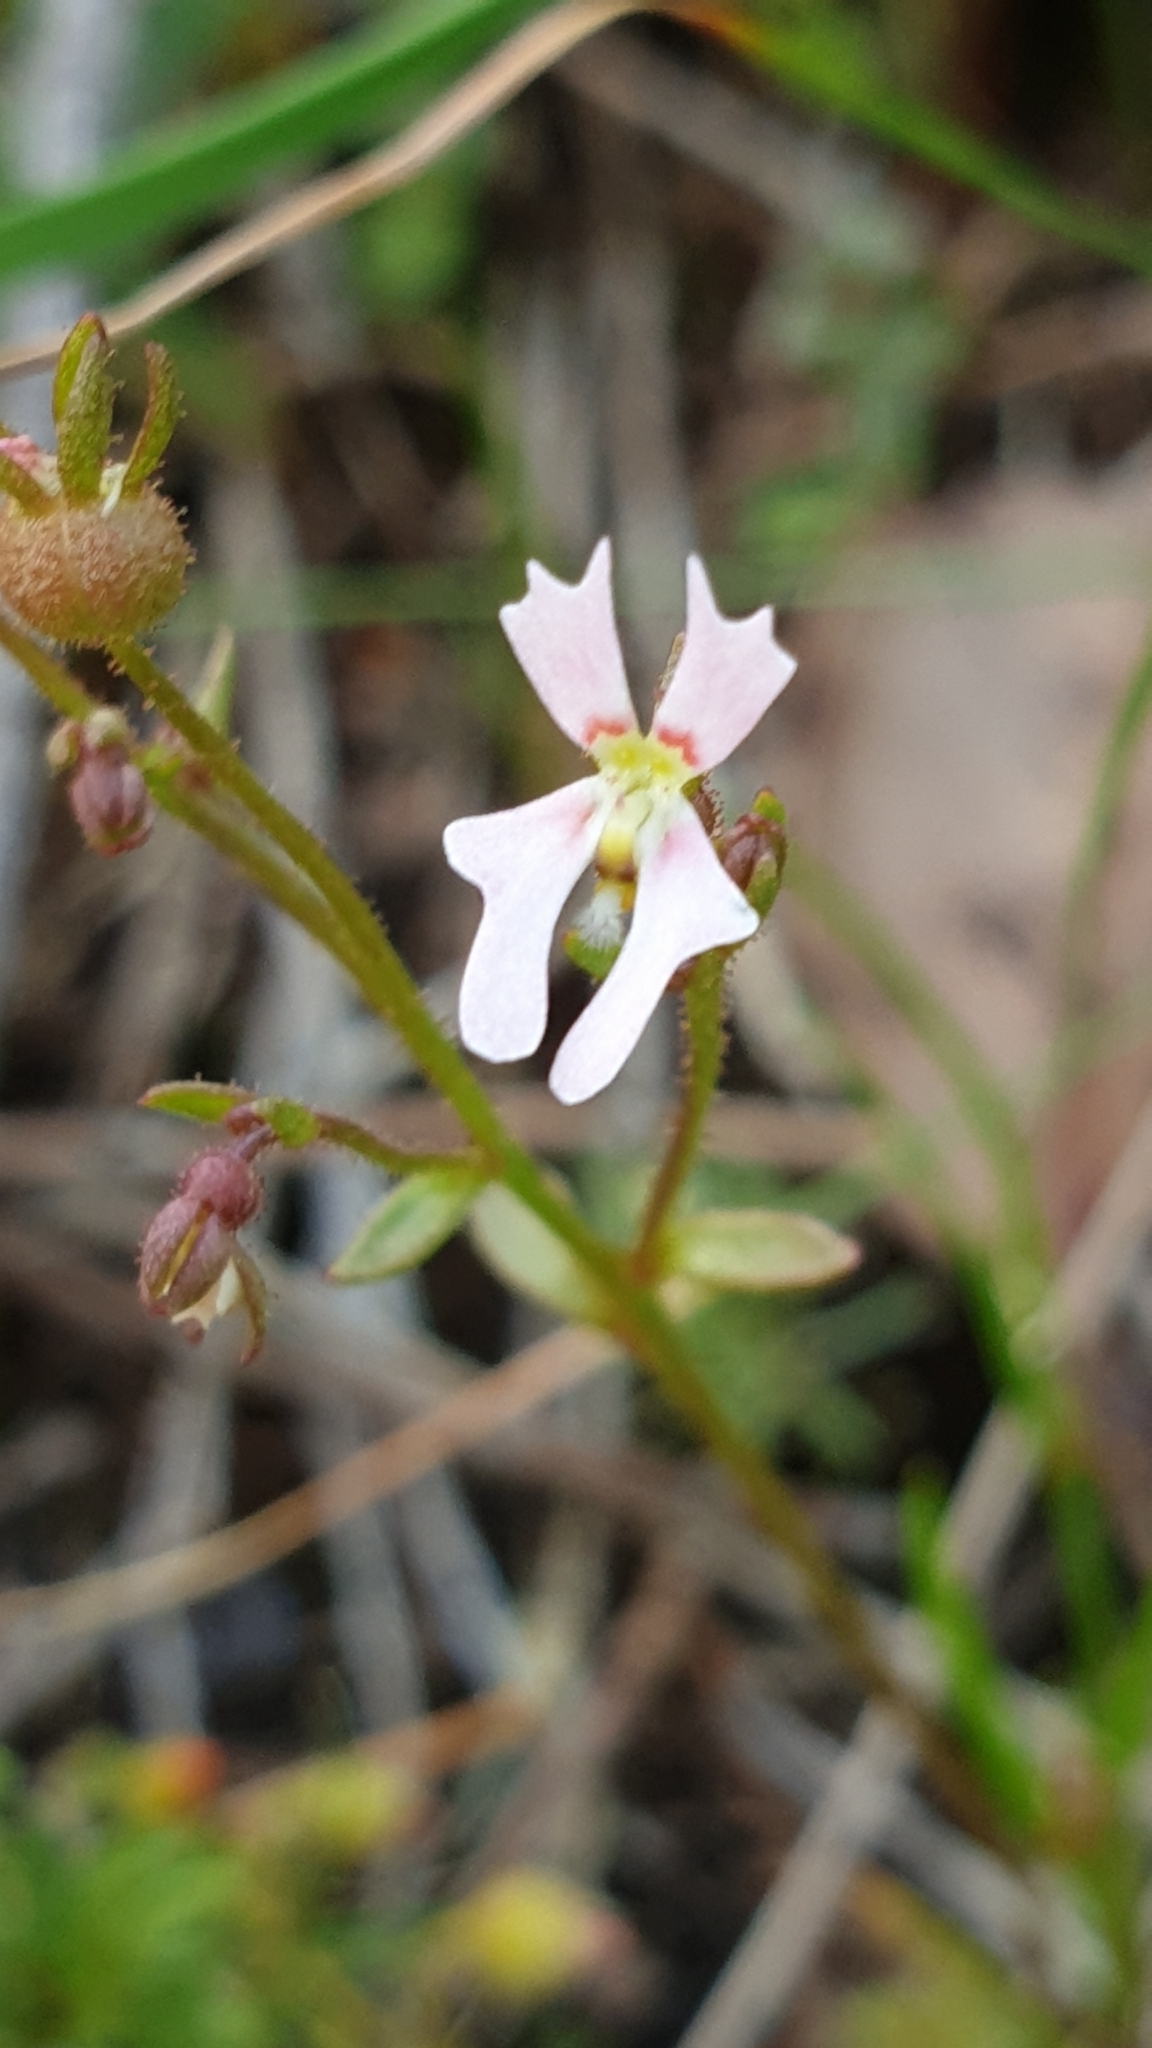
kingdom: Plantae
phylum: Tracheophyta
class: Magnoliopsida
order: Asterales
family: Stylidiaceae
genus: Stylidium
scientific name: Stylidium calcaratum
